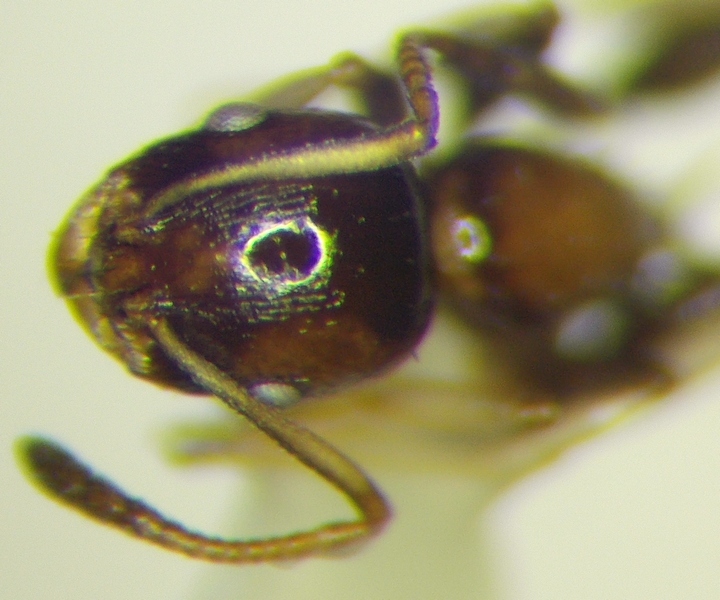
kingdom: Animalia
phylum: Arthropoda
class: Insecta
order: Hymenoptera
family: Formicidae
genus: Leptothorax
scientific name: Leptothorax subditivus
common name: Ant
